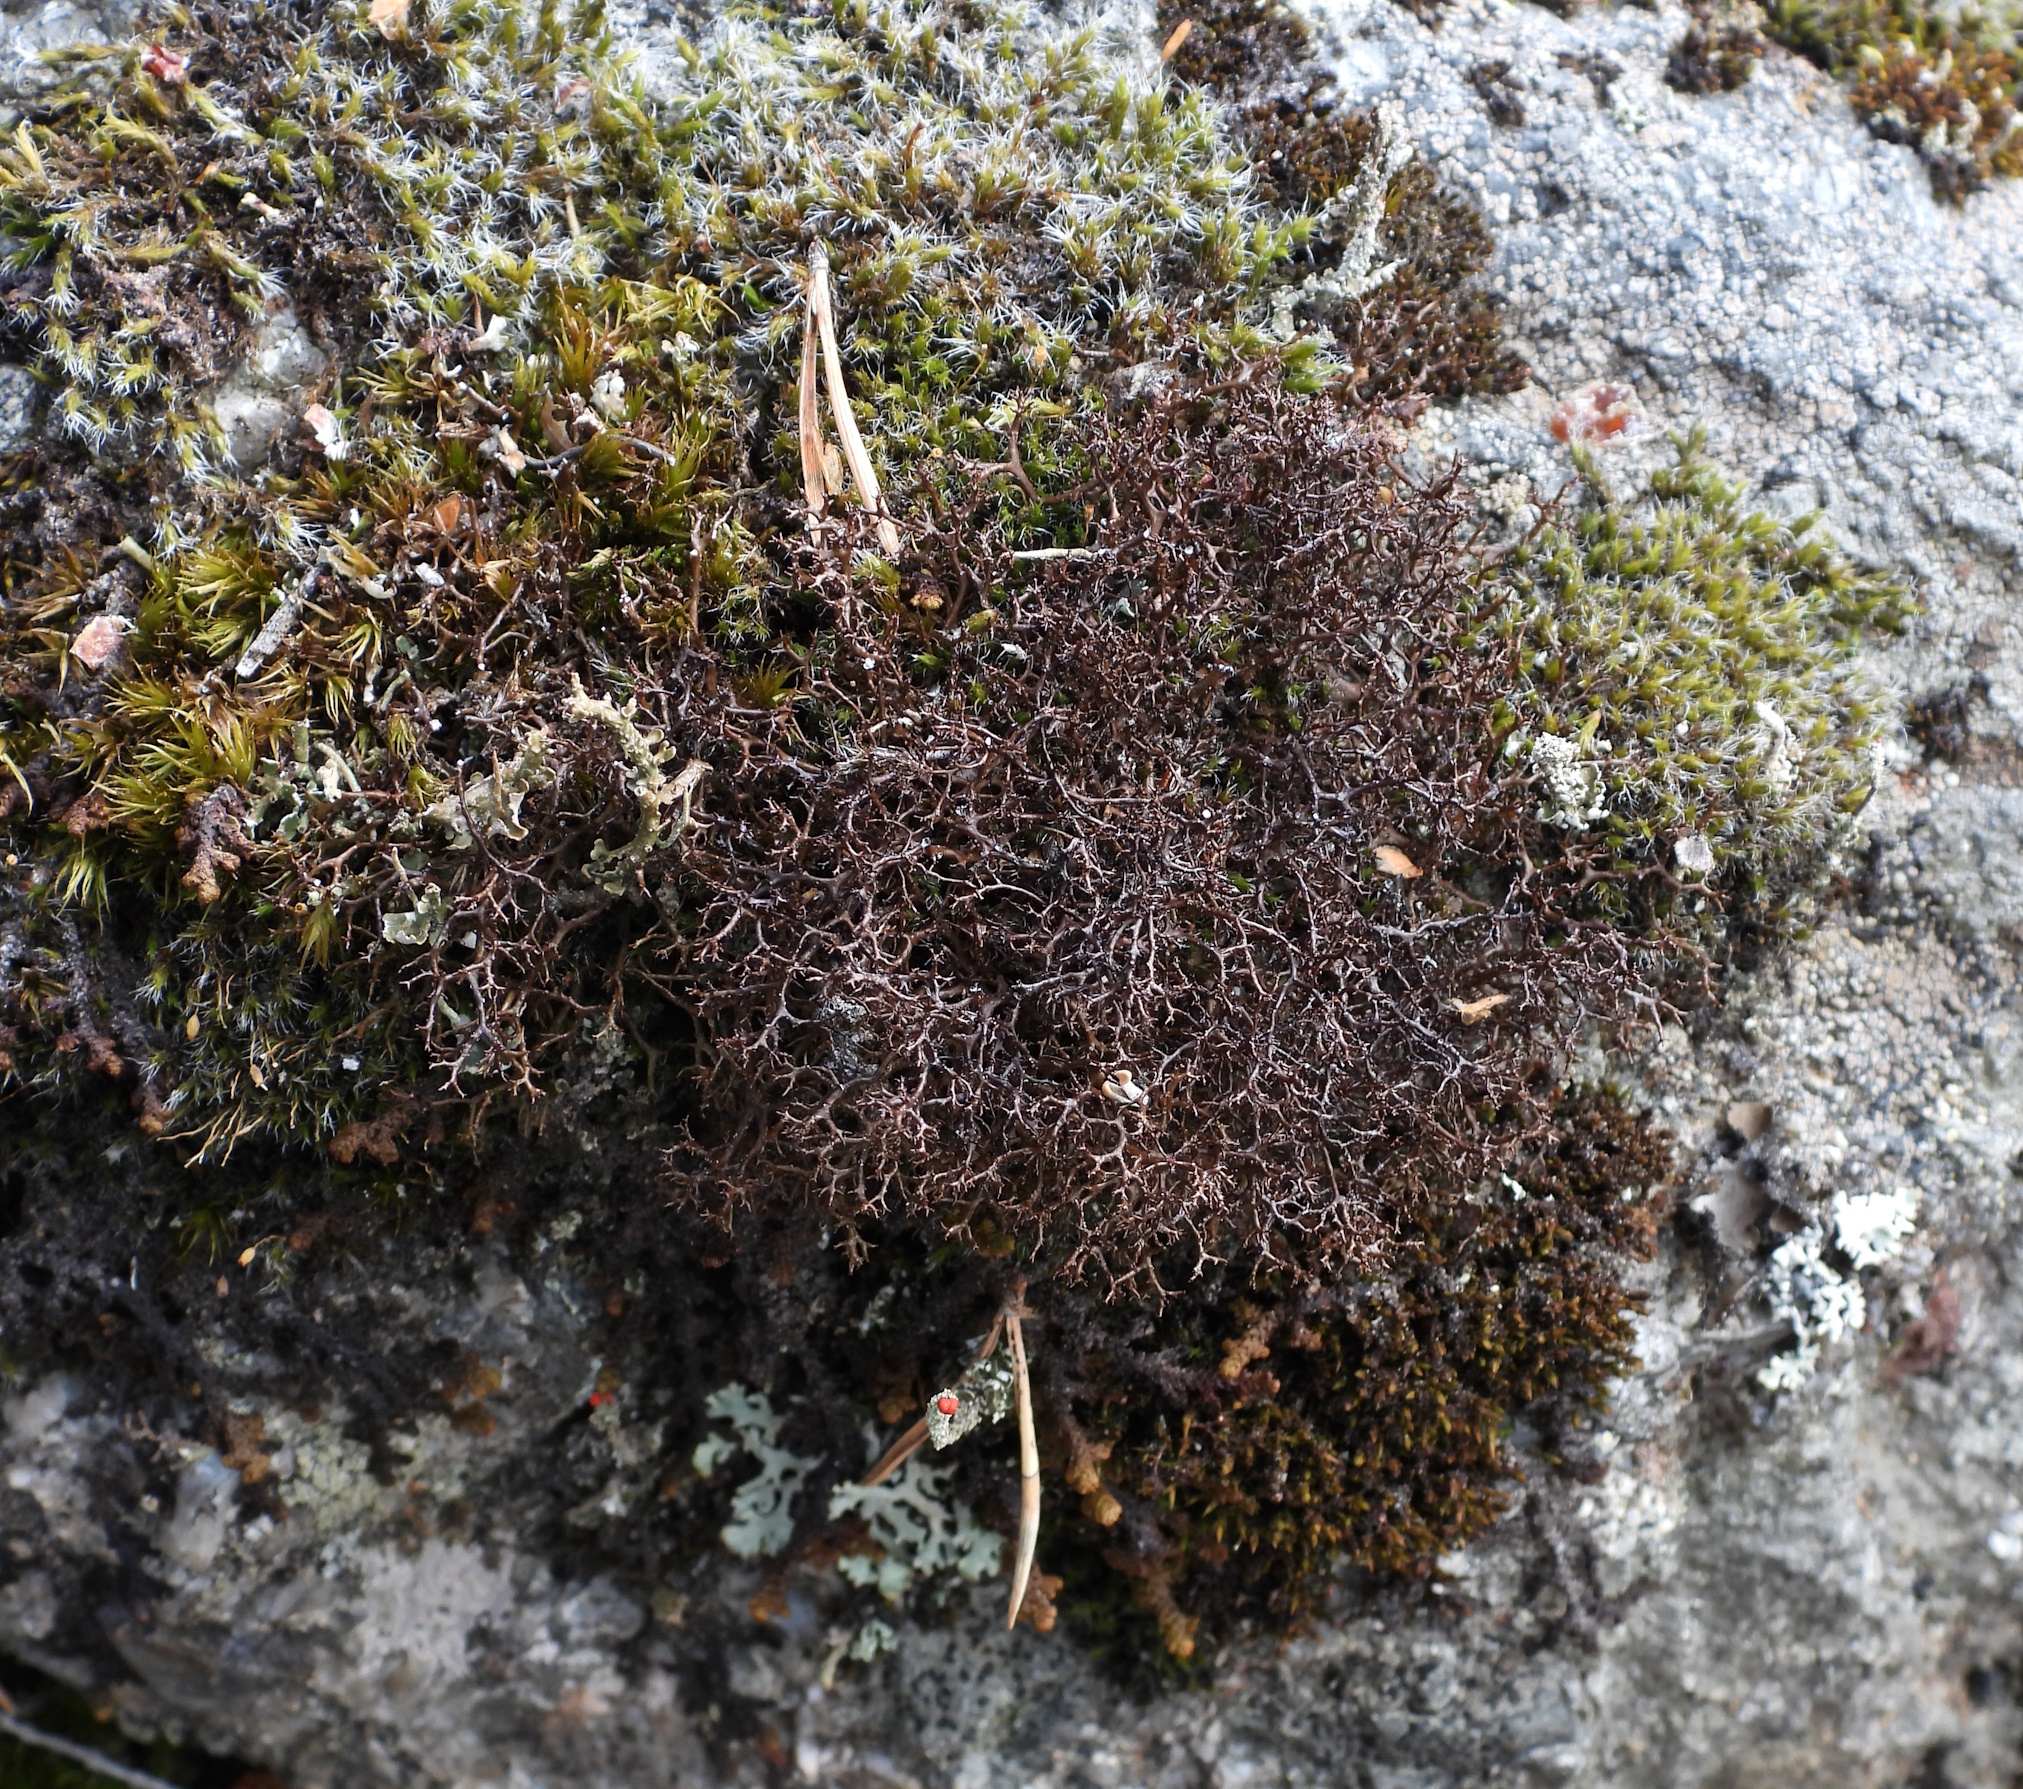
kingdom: Fungi
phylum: Ascomycota
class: Lecanoromycetes
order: Lecanorales
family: Parmeliaceae
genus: Cetraria
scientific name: Cetraria muricata
